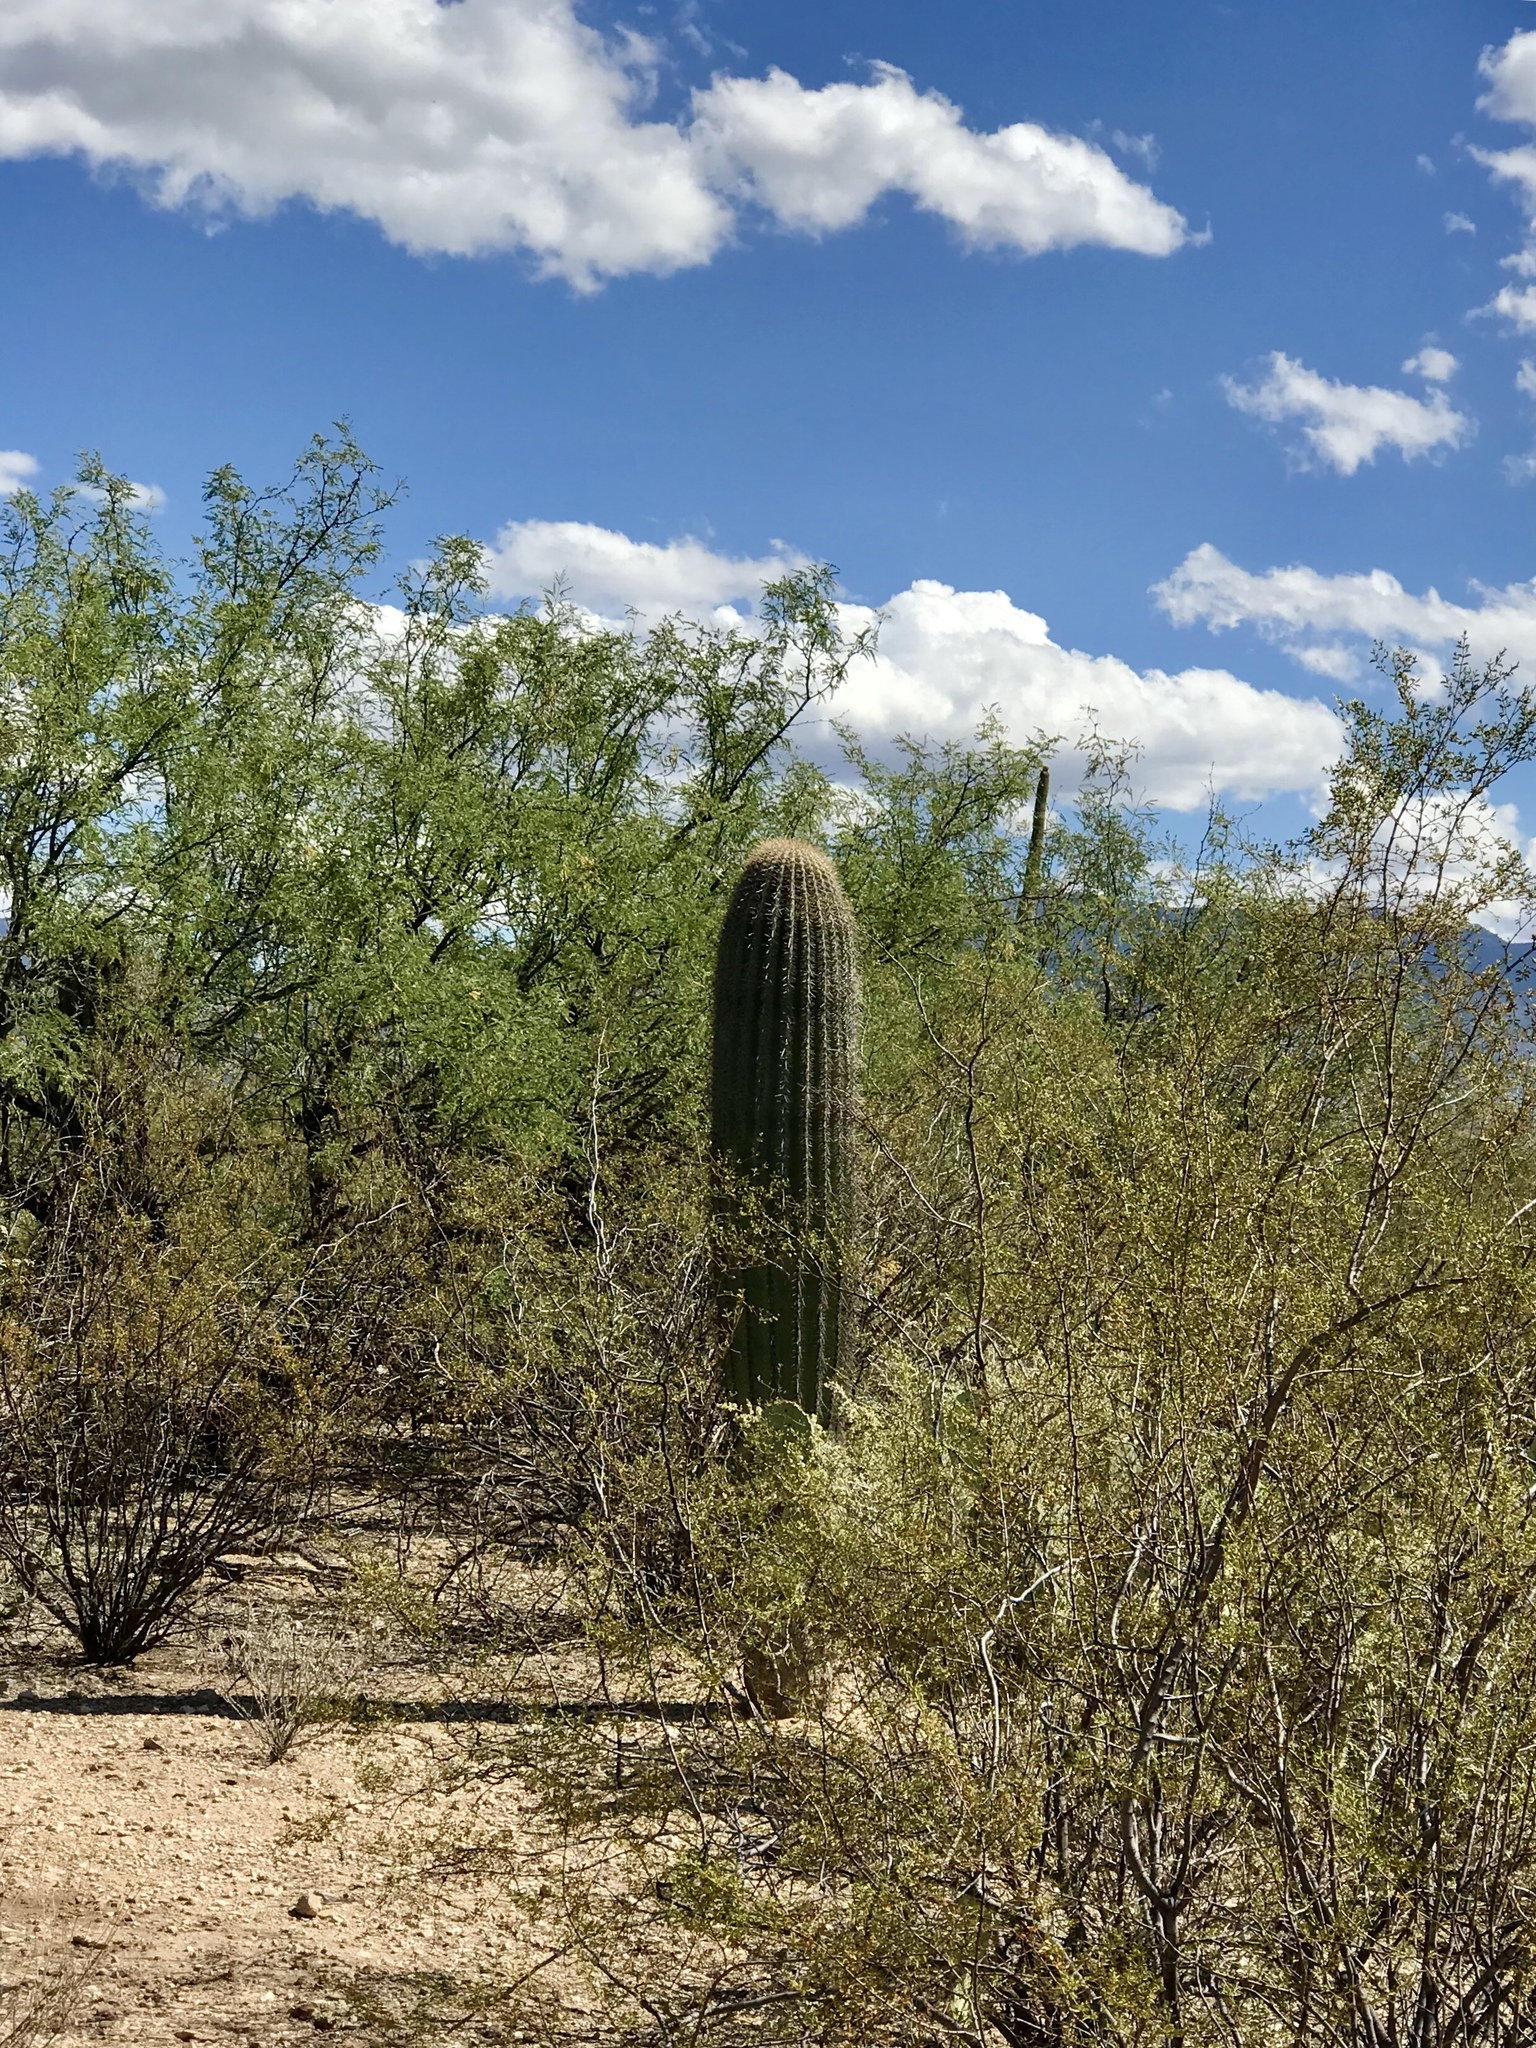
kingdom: Plantae
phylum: Tracheophyta
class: Magnoliopsida
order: Caryophyllales
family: Cactaceae
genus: Carnegiea
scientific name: Carnegiea gigantea
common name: Saguaro
